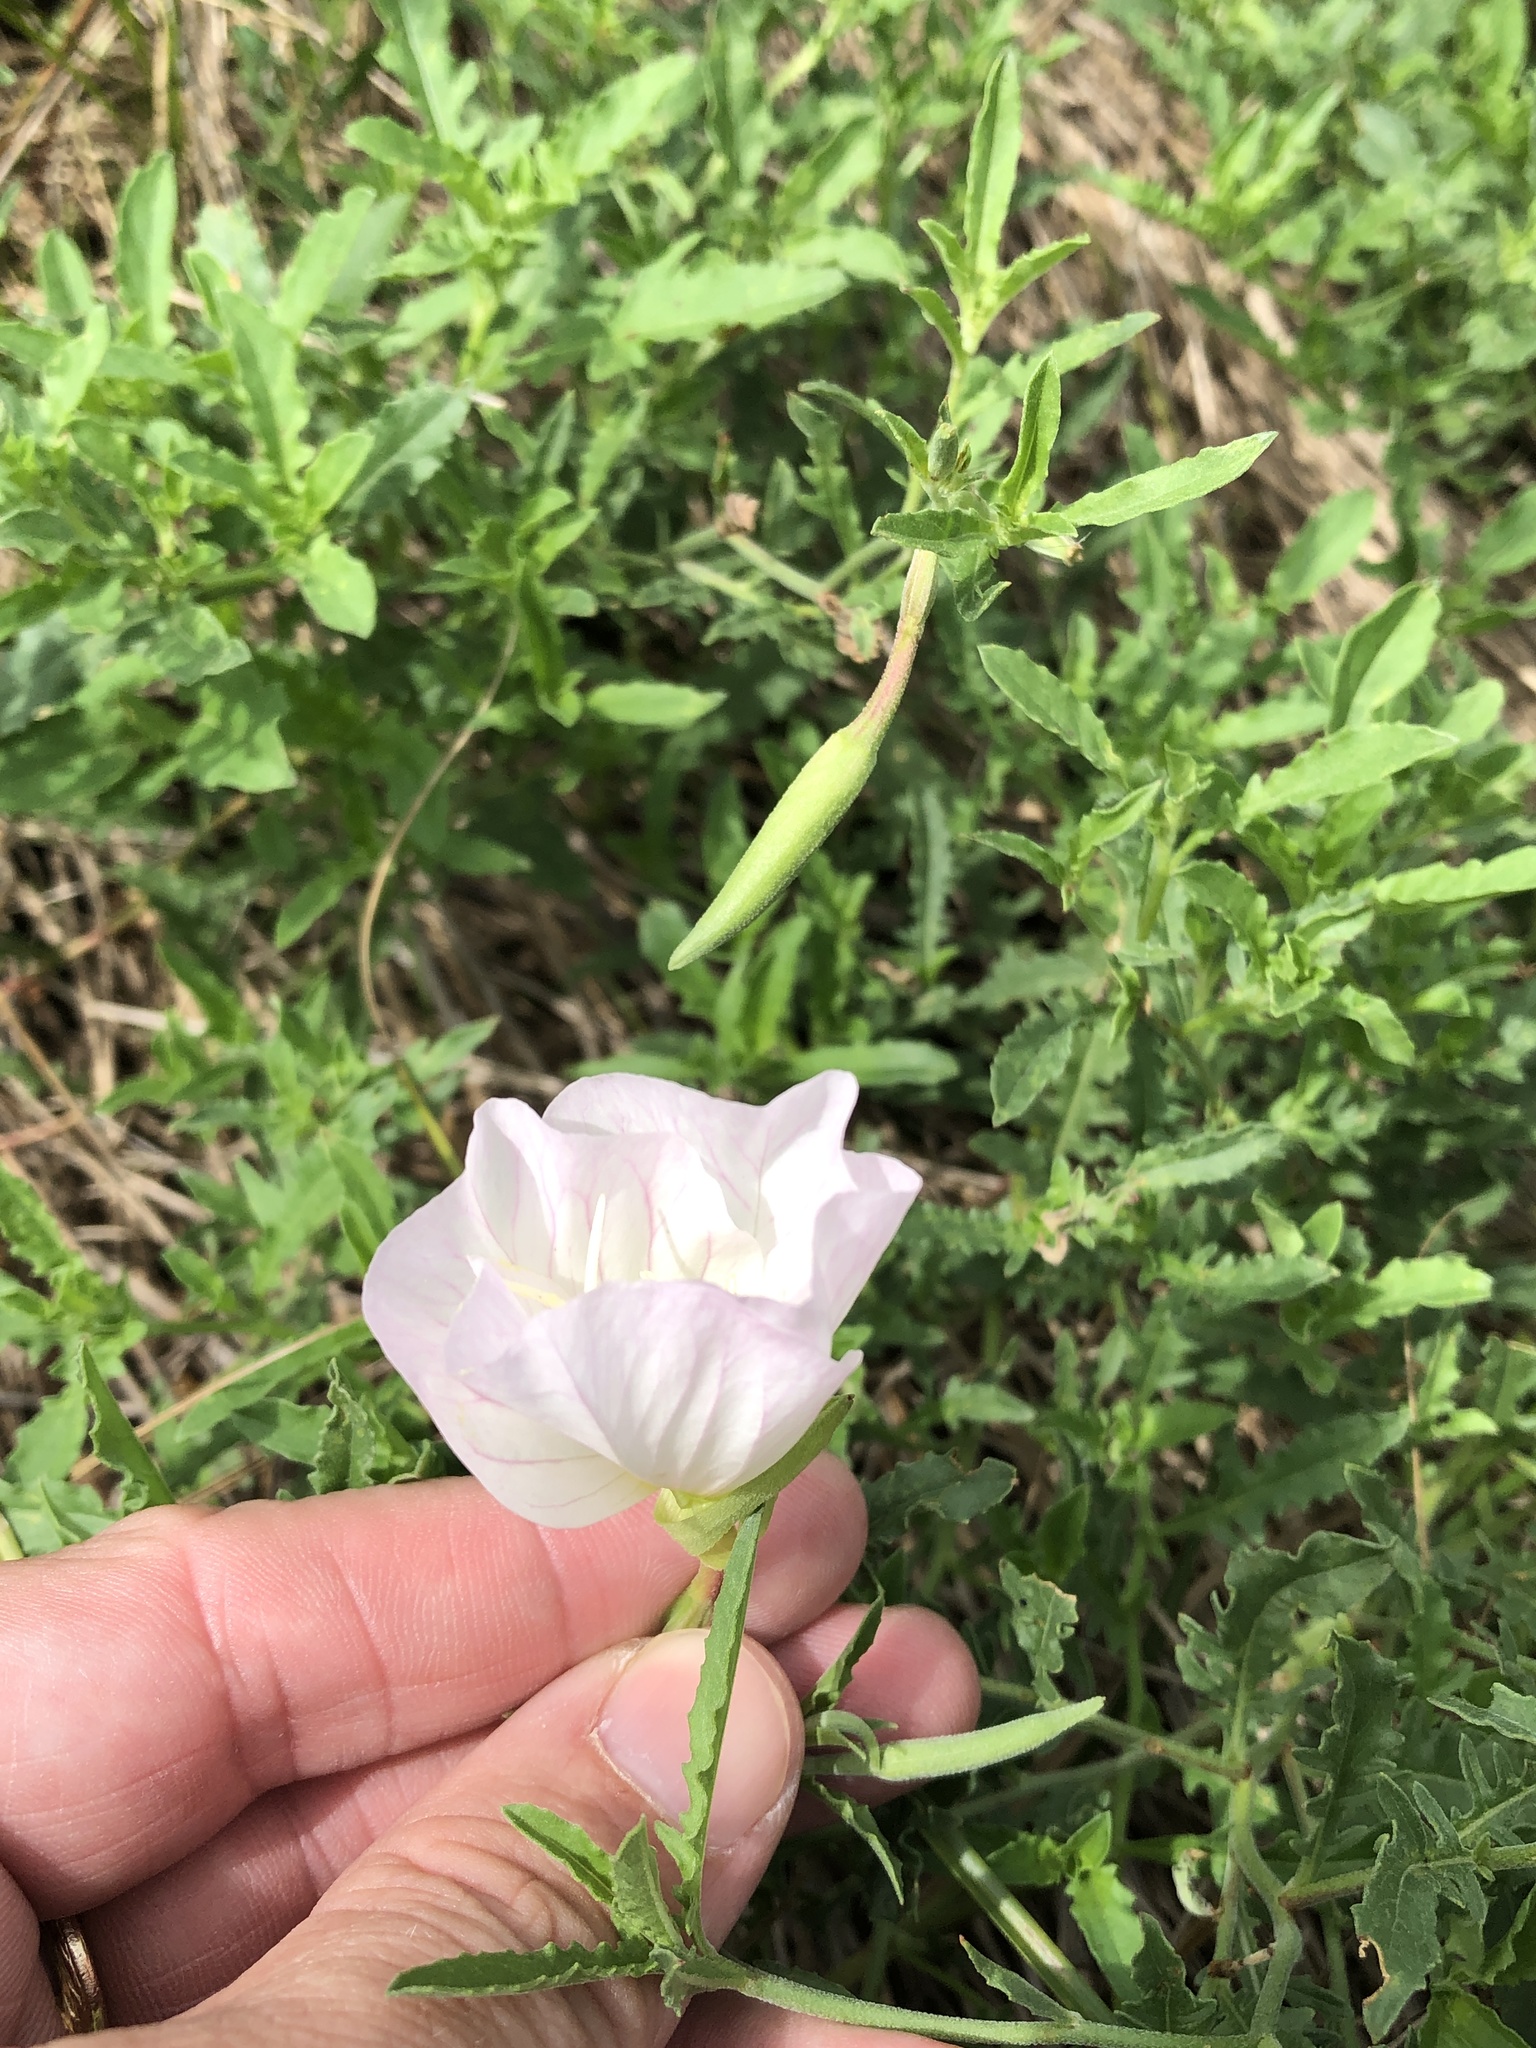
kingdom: Plantae
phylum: Tracheophyta
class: Magnoliopsida
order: Myrtales
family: Onagraceae
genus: Oenothera
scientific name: Oenothera speciosa
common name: White evening-primrose
